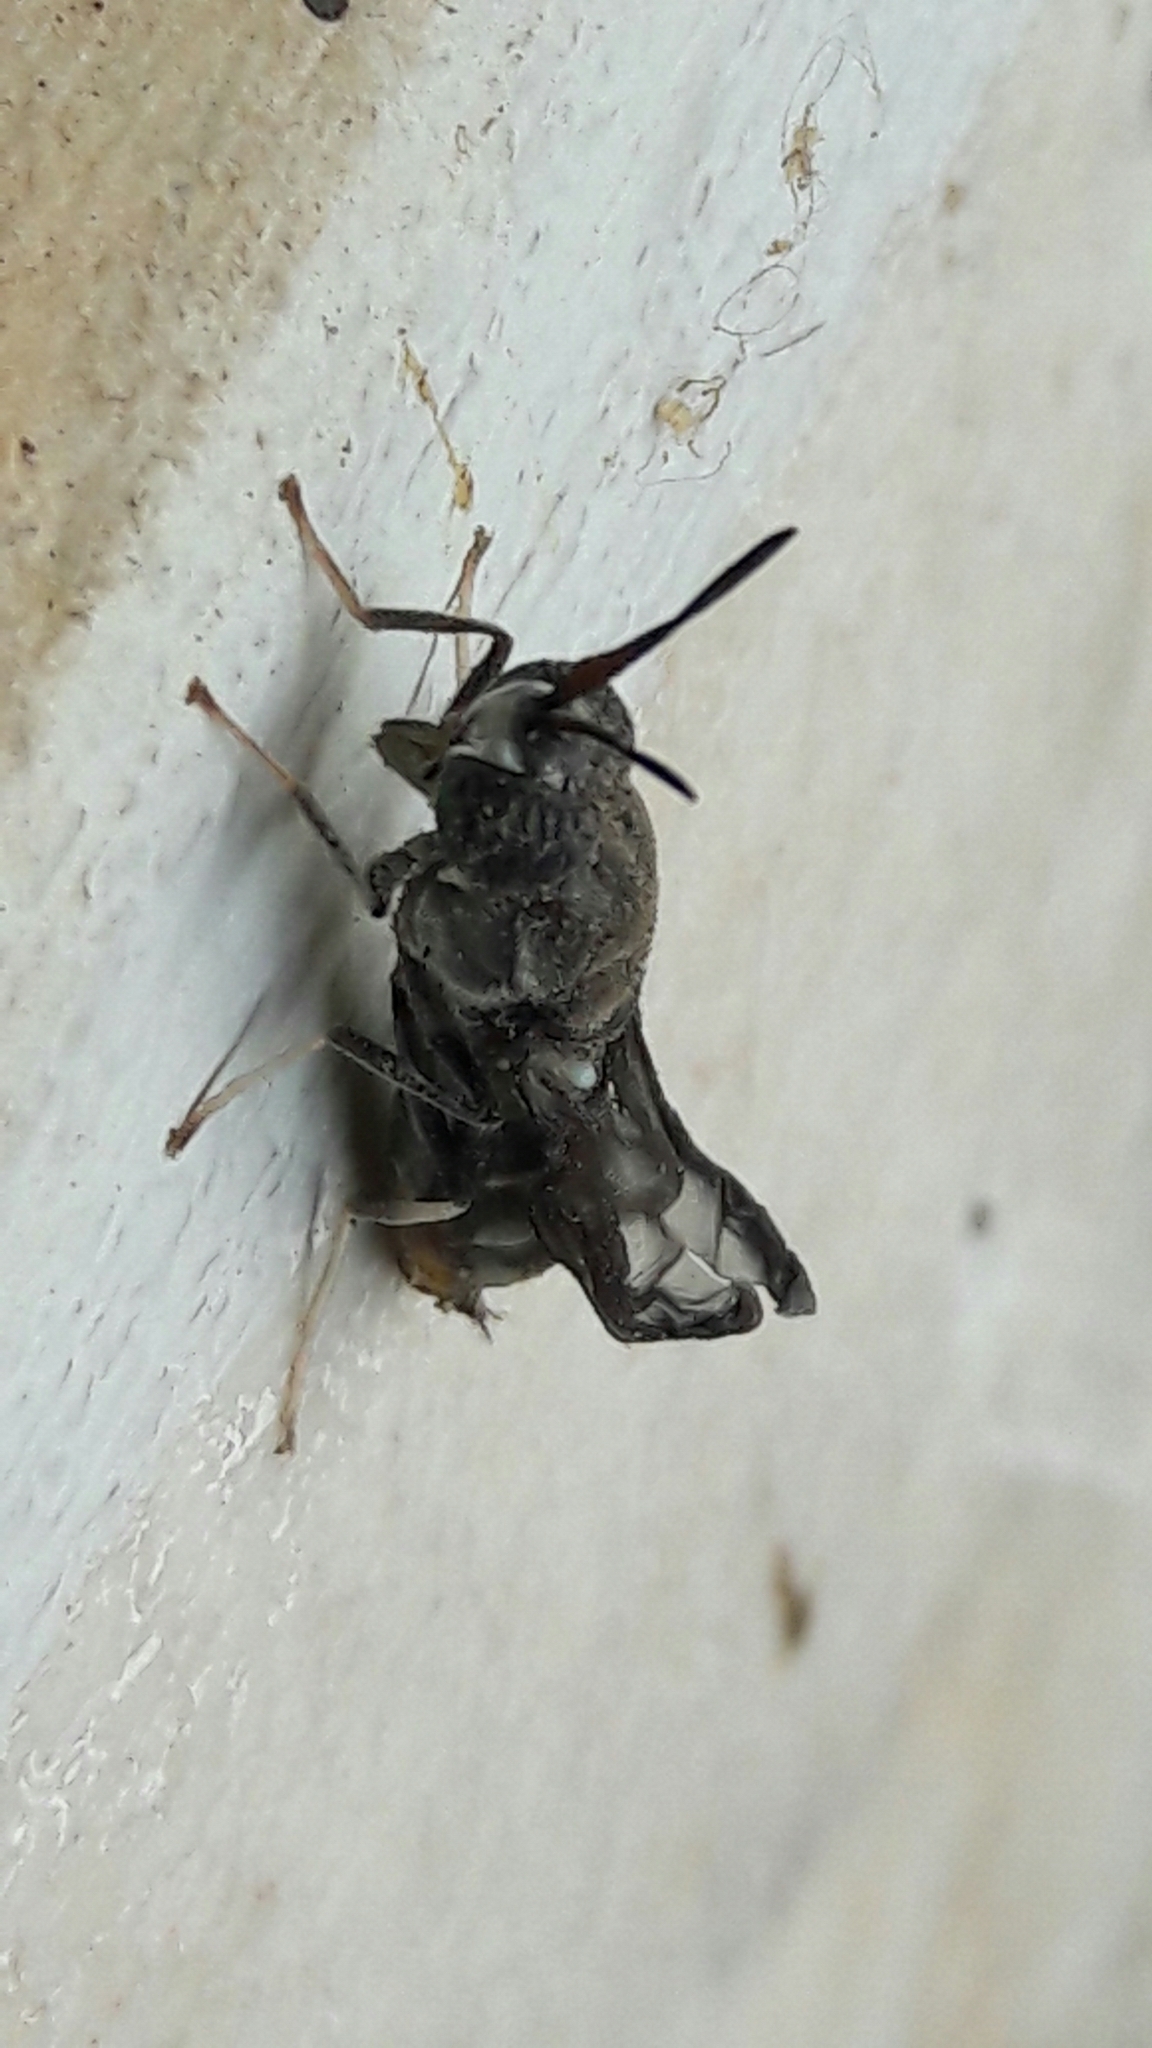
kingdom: Animalia
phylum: Arthropoda
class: Insecta
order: Diptera
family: Stratiomyidae
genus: Hermetia
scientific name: Hermetia illucens
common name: Black soldier fly
